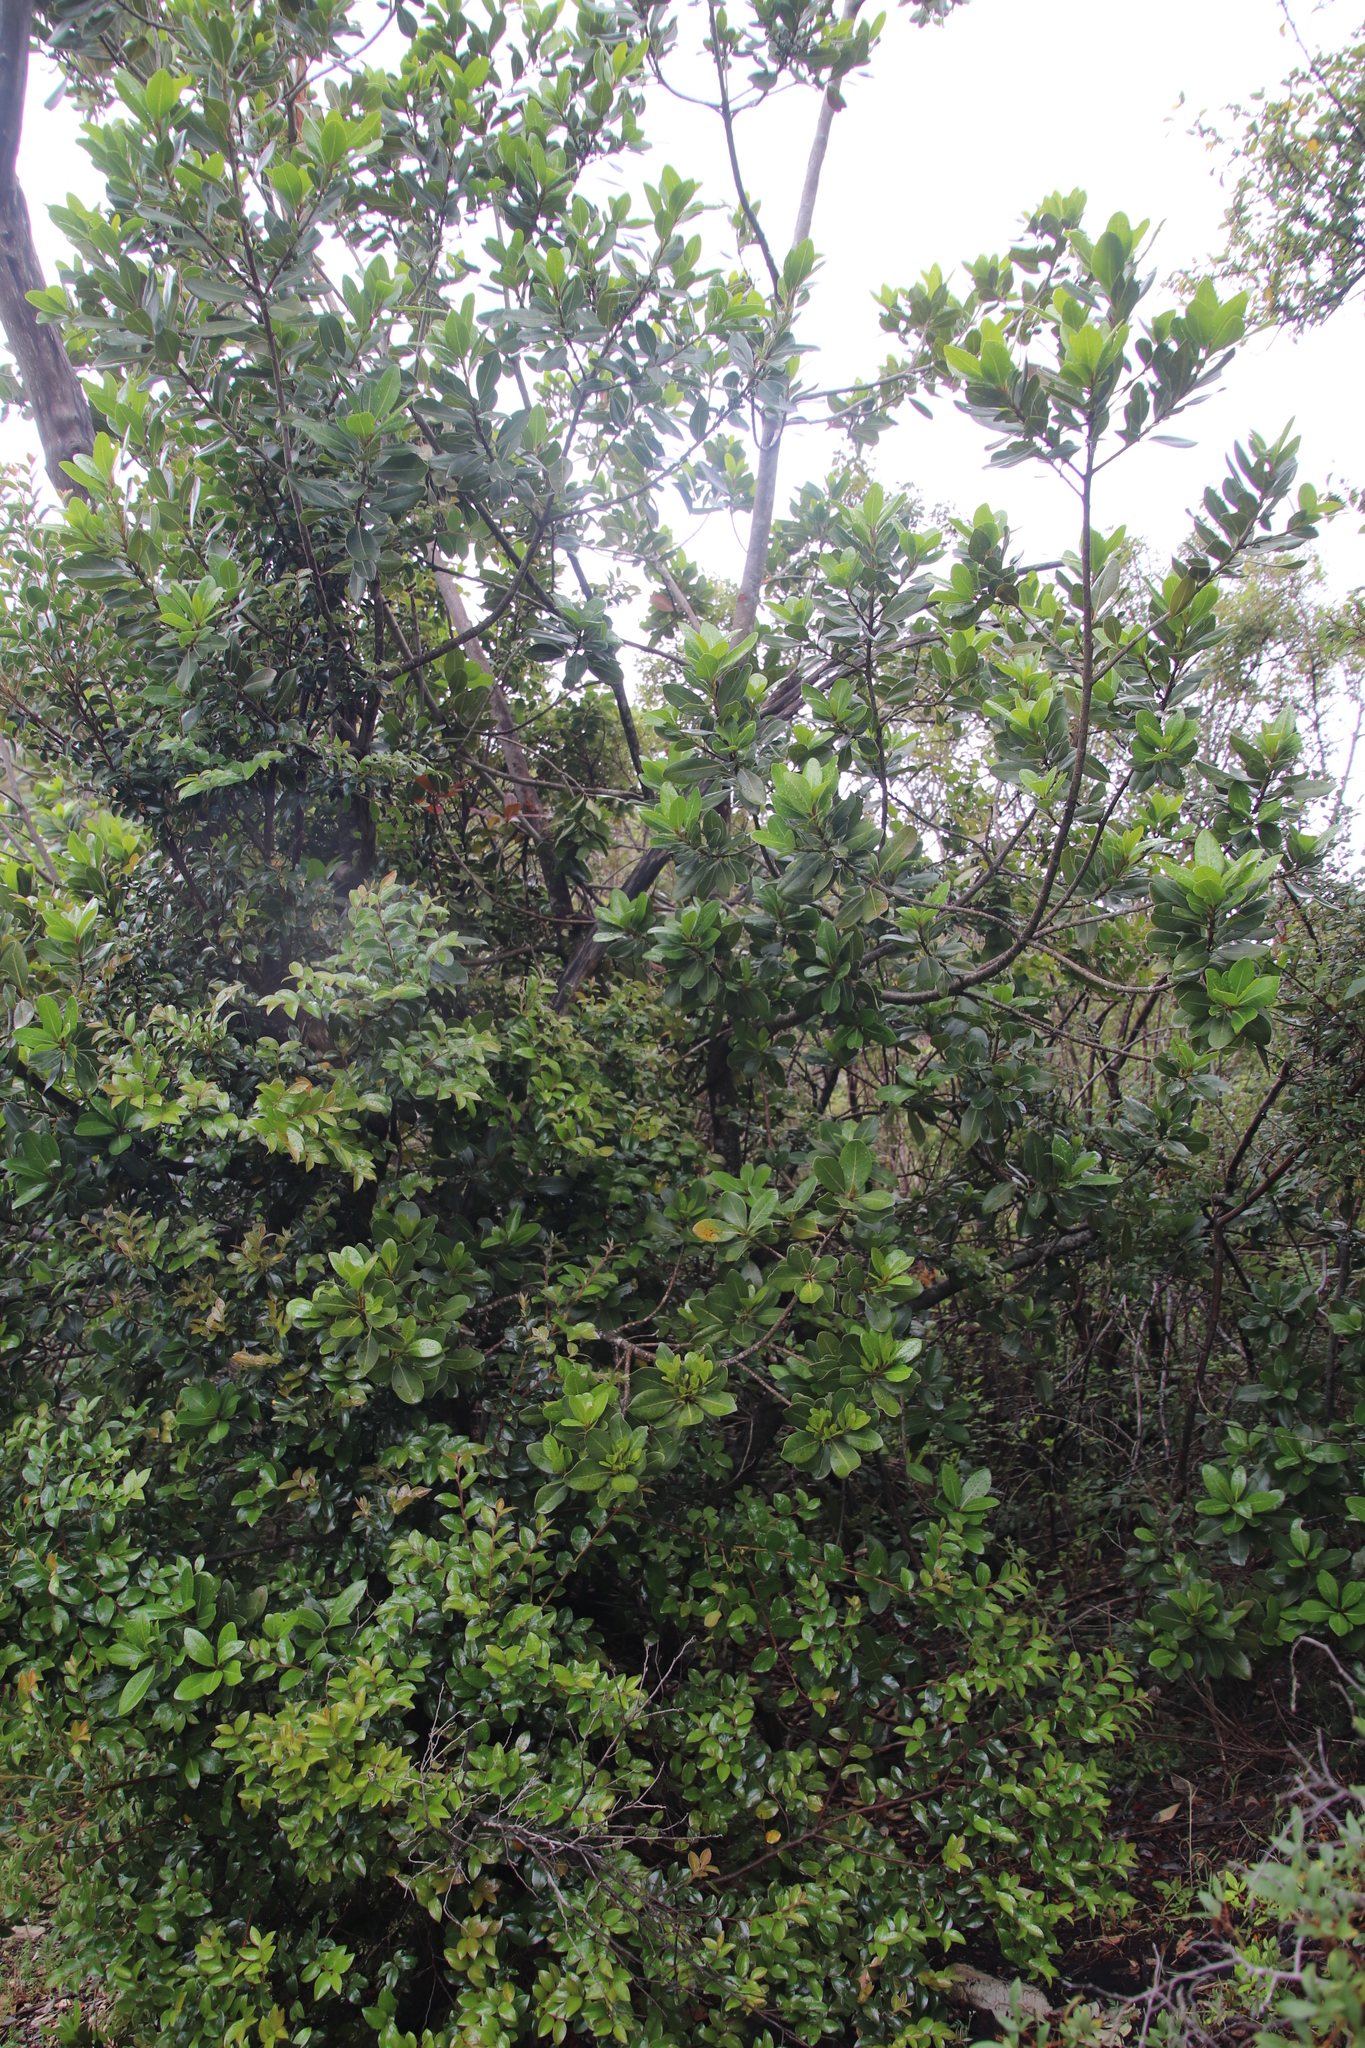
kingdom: Plantae
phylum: Tracheophyta
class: Magnoliopsida
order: Ericales
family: Sapotaceae
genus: Sideroxylon
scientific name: Sideroxylon inerme
